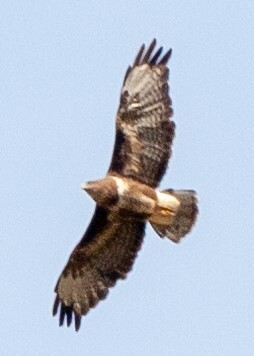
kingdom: Animalia
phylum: Chordata
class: Aves
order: Accipitriformes
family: Accipitridae
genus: Buteo
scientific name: Buteo buteo
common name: Common buzzard
